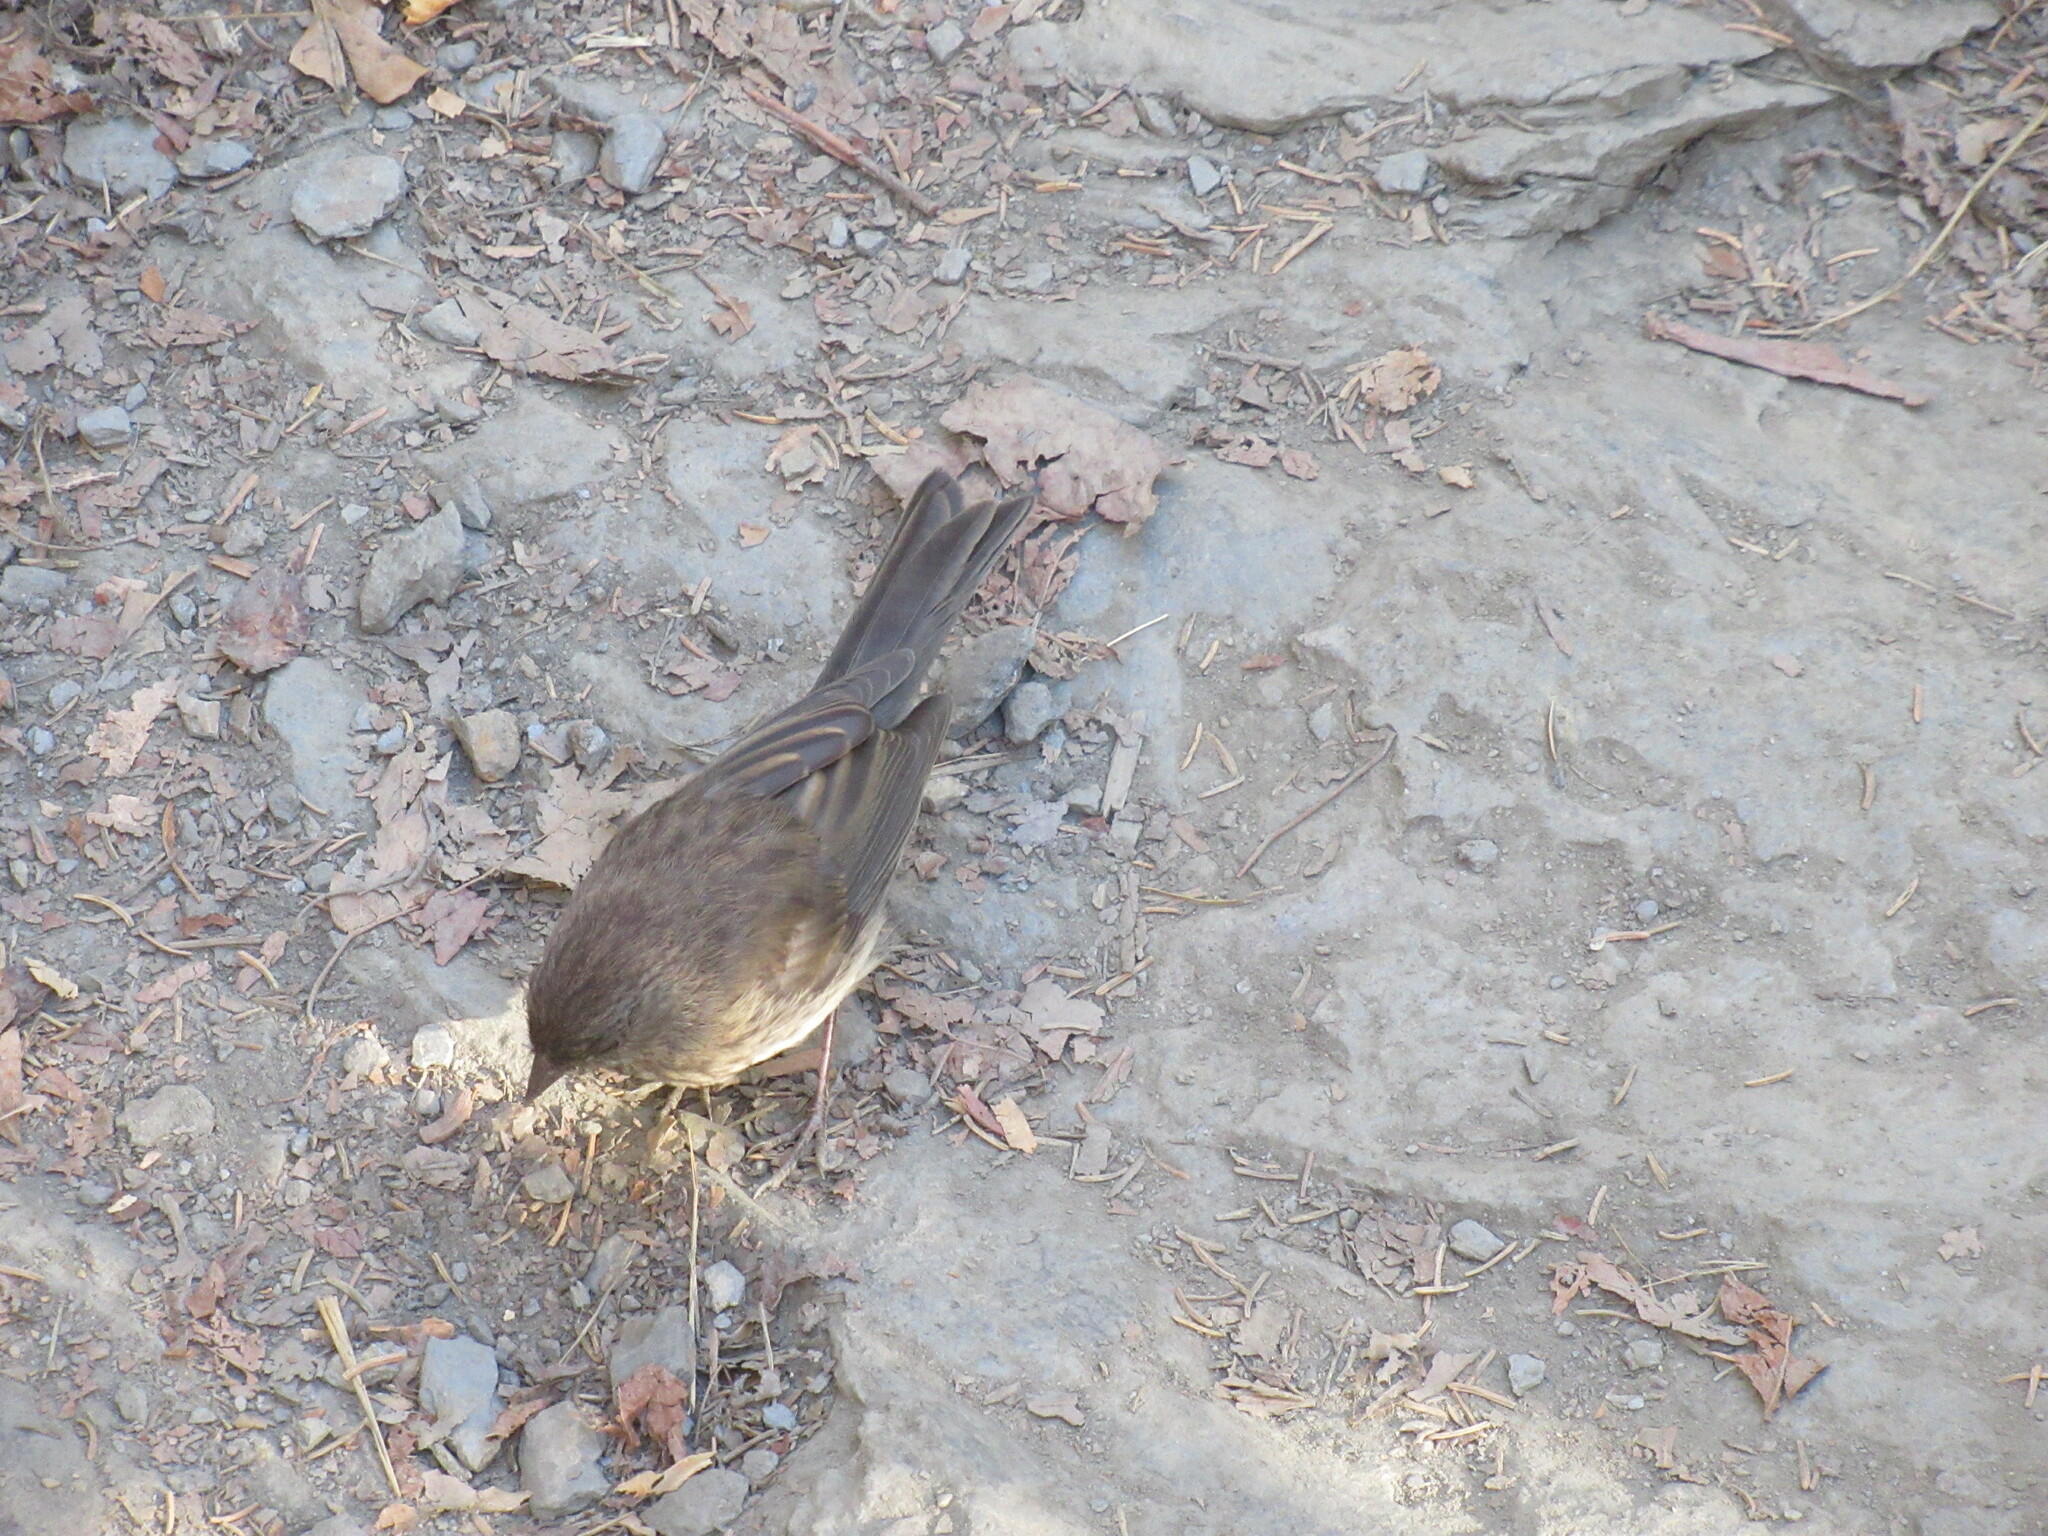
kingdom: Animalia
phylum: Chordata
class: Aves
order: Passeriformes
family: Fringillidae
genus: Haemorhous
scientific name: Haemorhous mexicanus
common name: House finch
